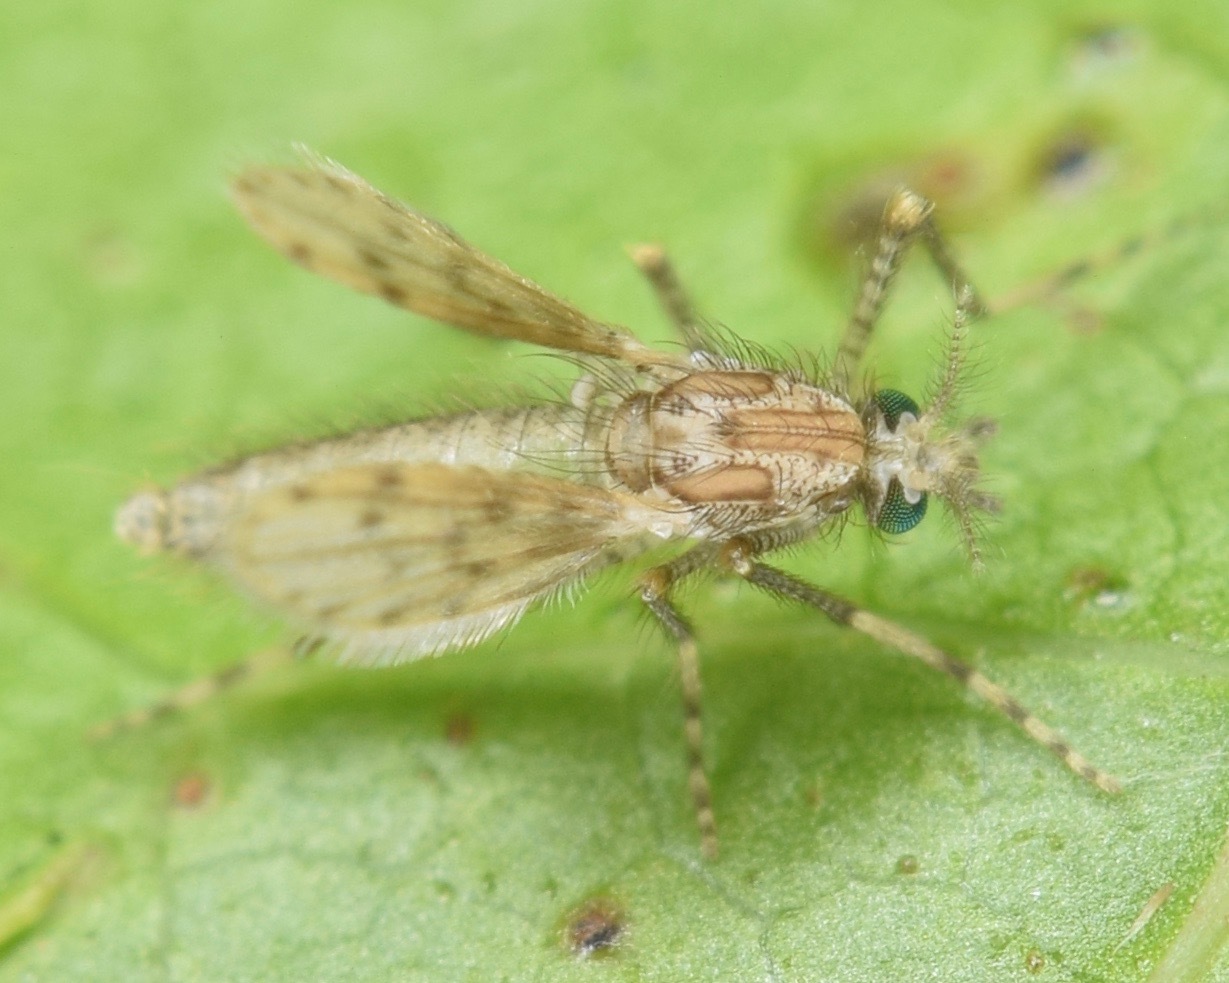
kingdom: Animalia
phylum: Arthropoda
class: Insecta
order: Diptera
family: Chaoboridae
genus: Chaoborus
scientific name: Chaoborus punctipennis
